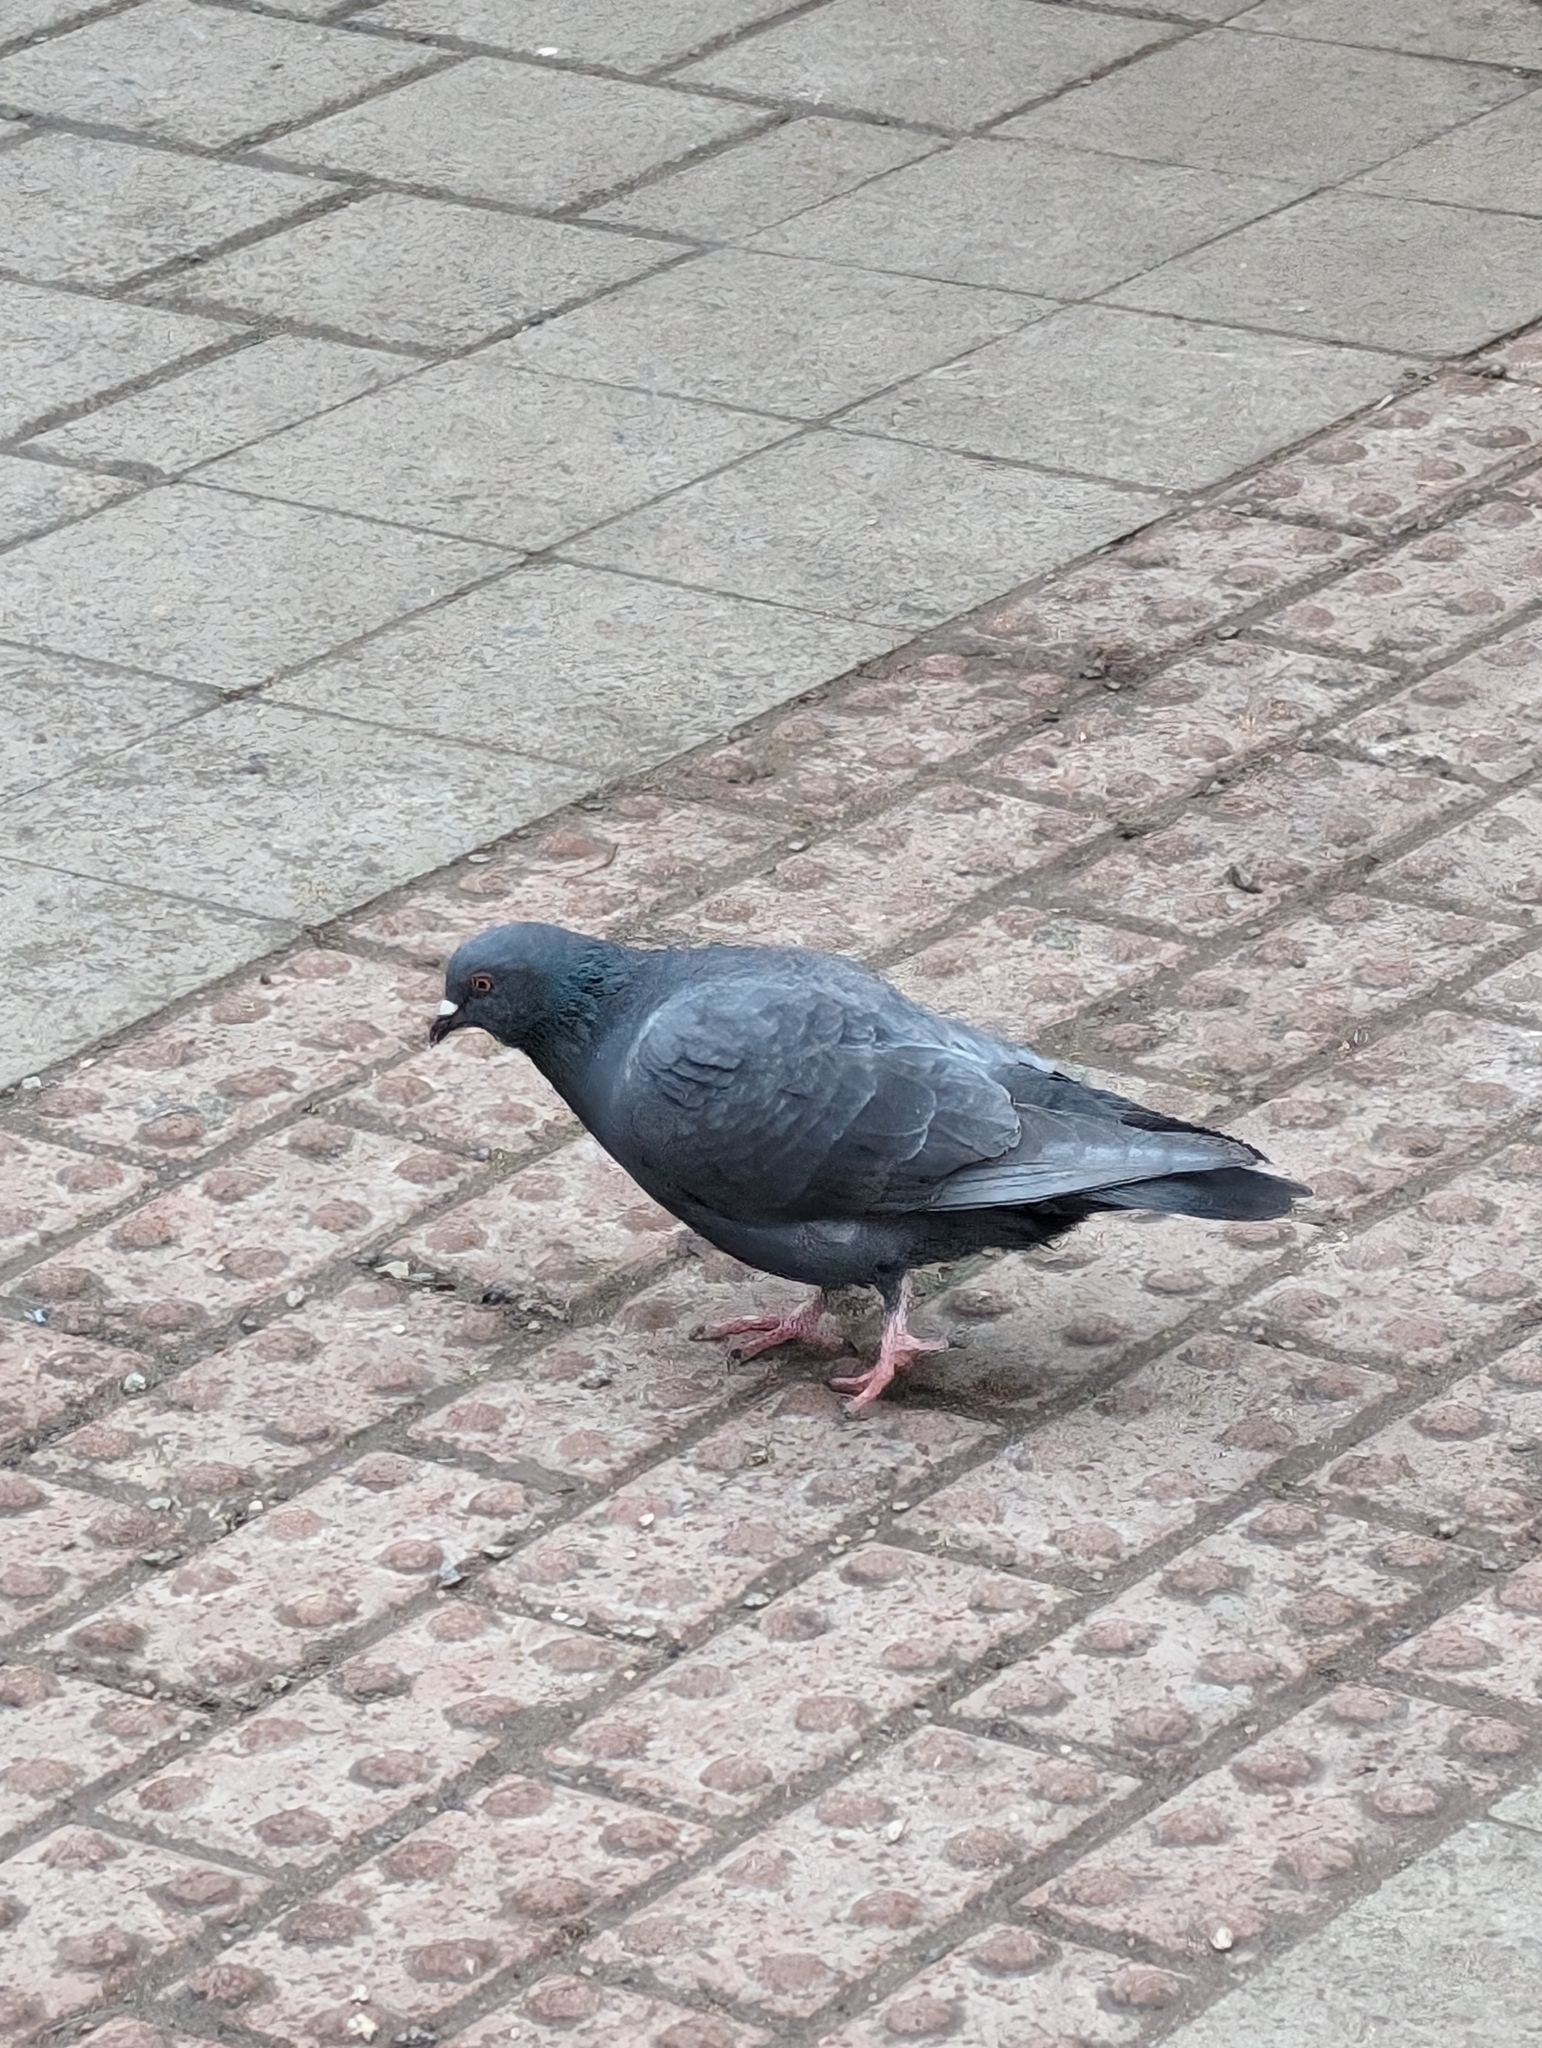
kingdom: Animalia
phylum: Chordata
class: Aves
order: Columbiformes
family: Columbidae
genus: Columba
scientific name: Columba livia
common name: Rock pigeon
